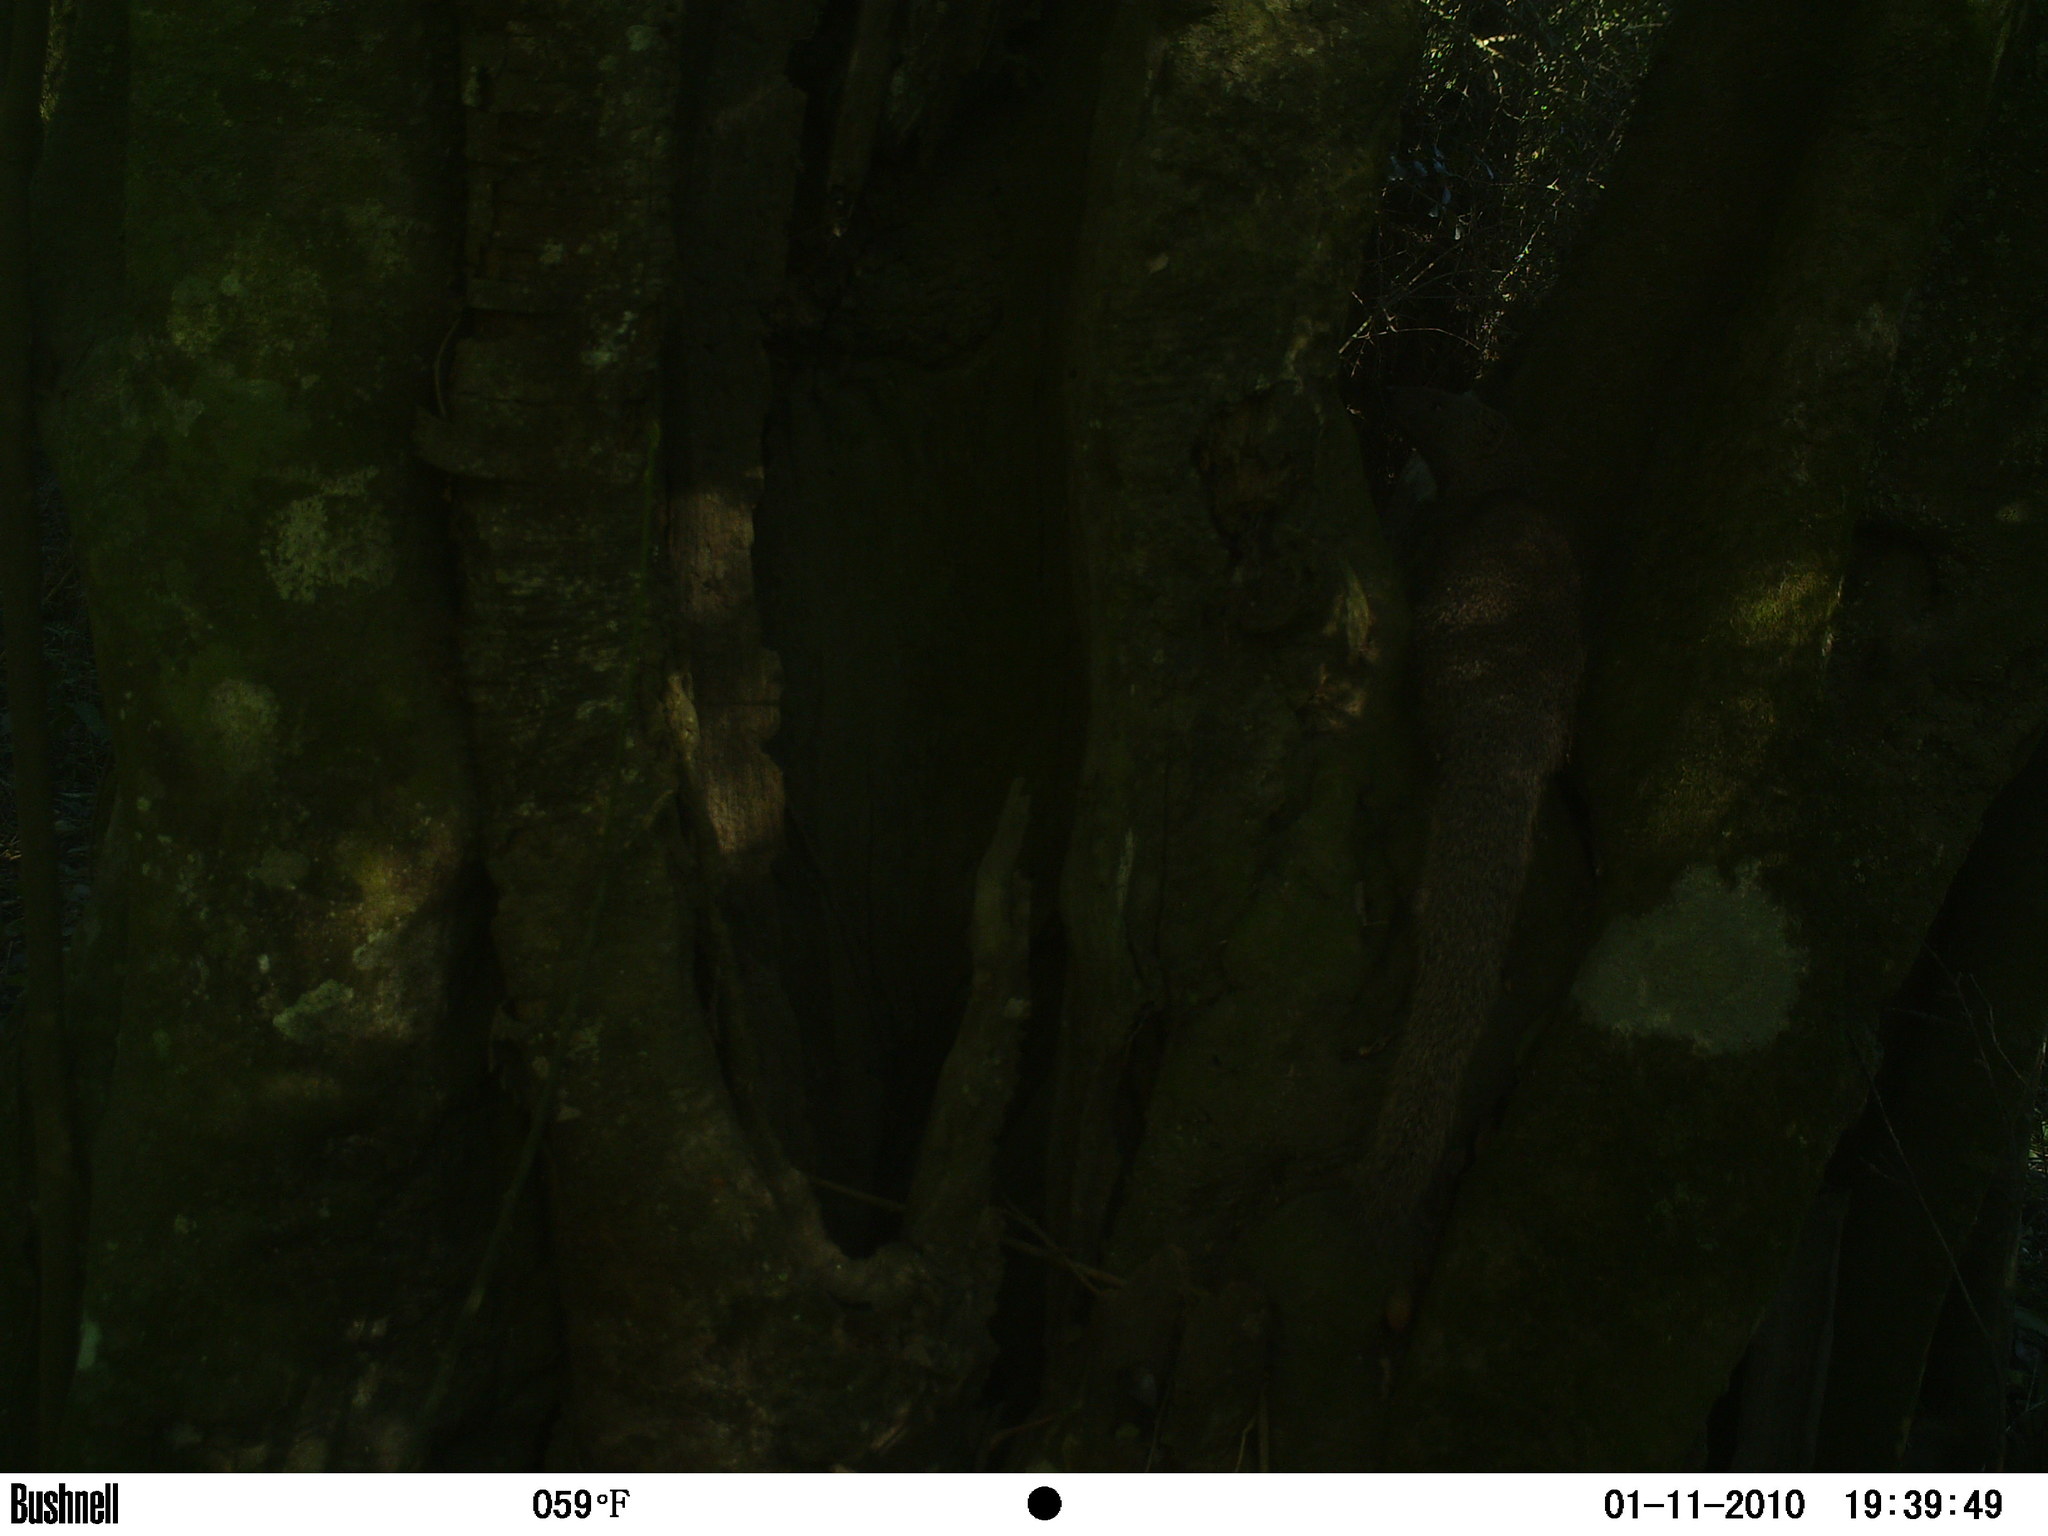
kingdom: Animalia
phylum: Chordata
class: Mammalia
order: Carnivora
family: Herpestidae
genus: Galerella
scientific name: Galerella pulverulenta
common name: Cape gray mongoose
